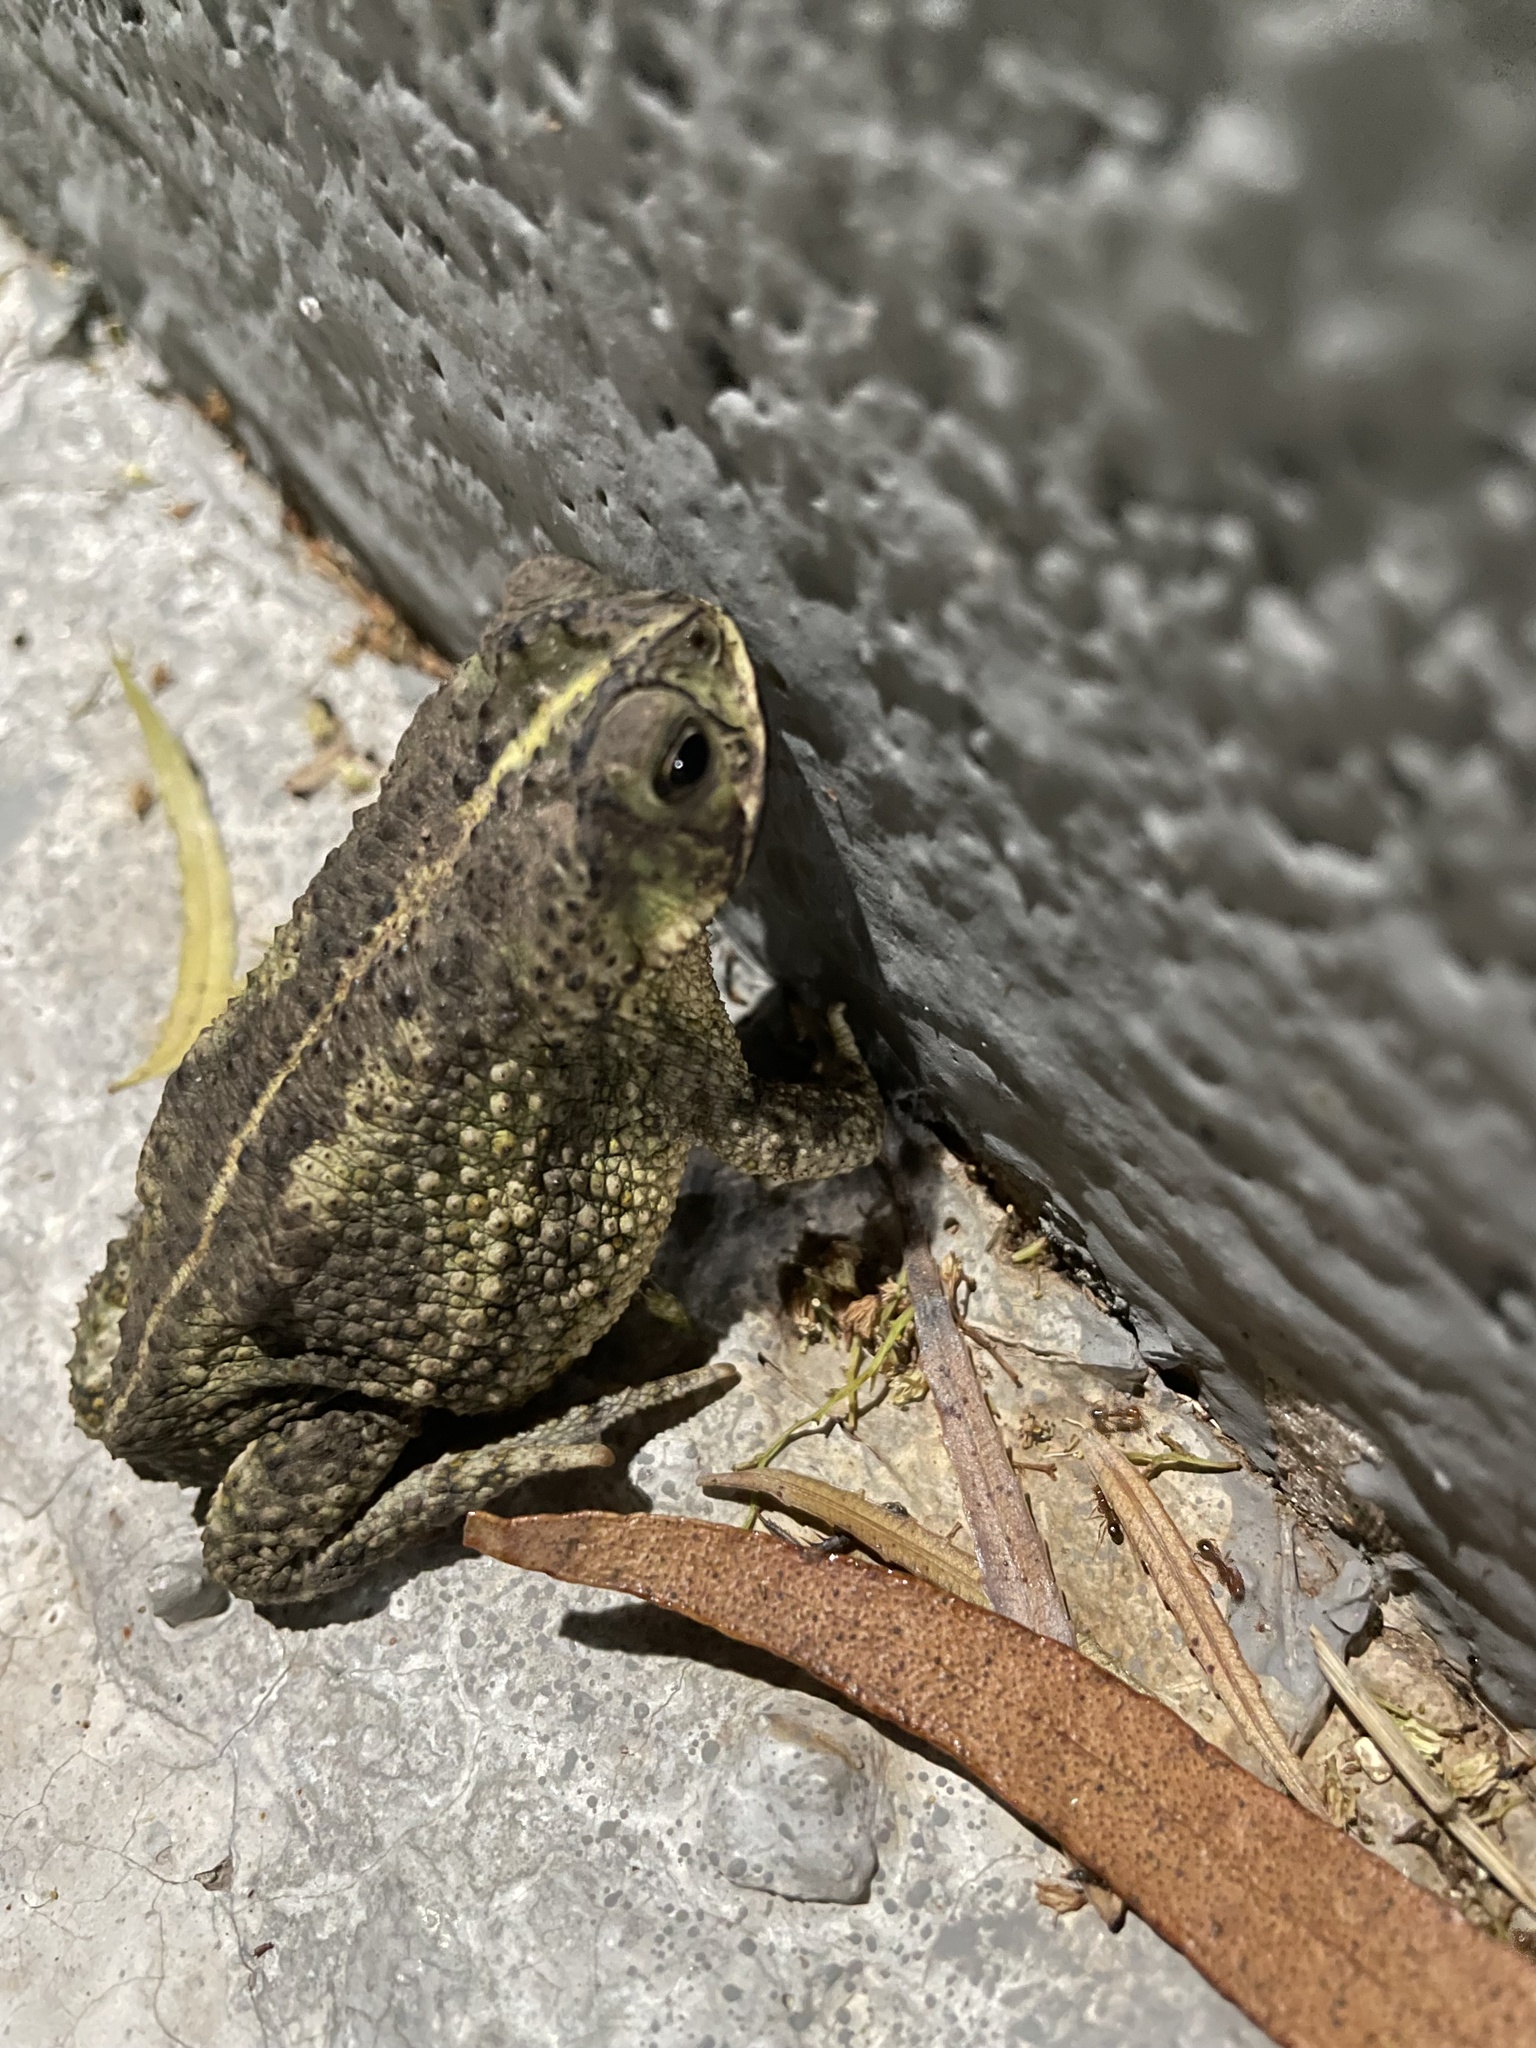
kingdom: Animalia
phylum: Chordata
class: Amphibia
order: Anura
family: Bufonidae
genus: Rhinella
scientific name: Rhinella dorbignyi
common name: D´orbigny’s toad
